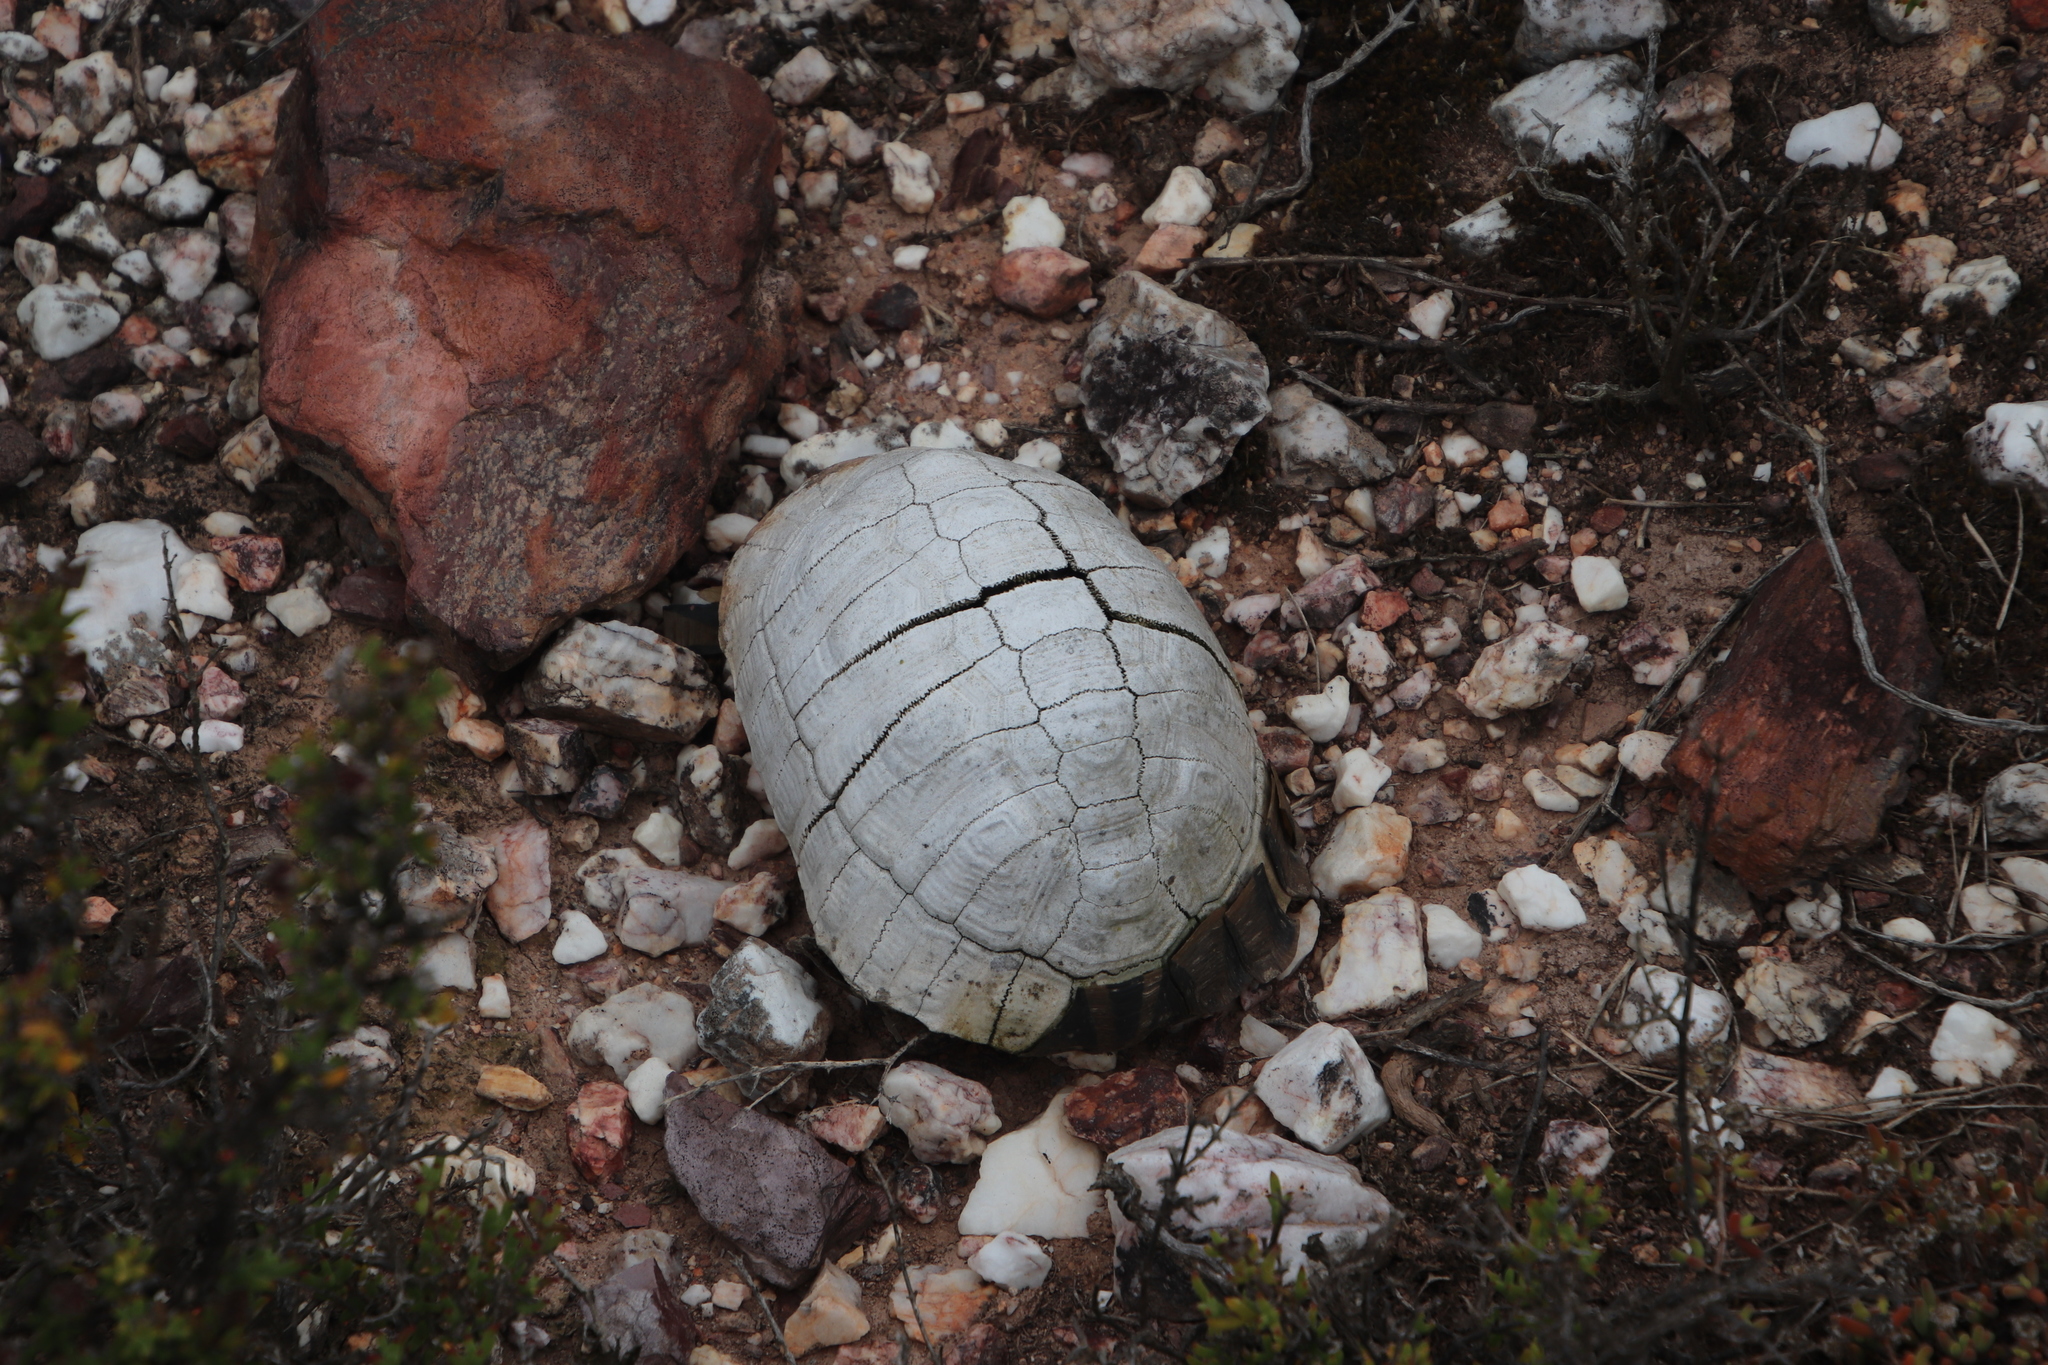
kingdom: Animalia
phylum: Chordata
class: Testudines
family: Testudinidae
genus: Chersina
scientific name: Chersina angulata
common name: South african bowsprit tortoise
